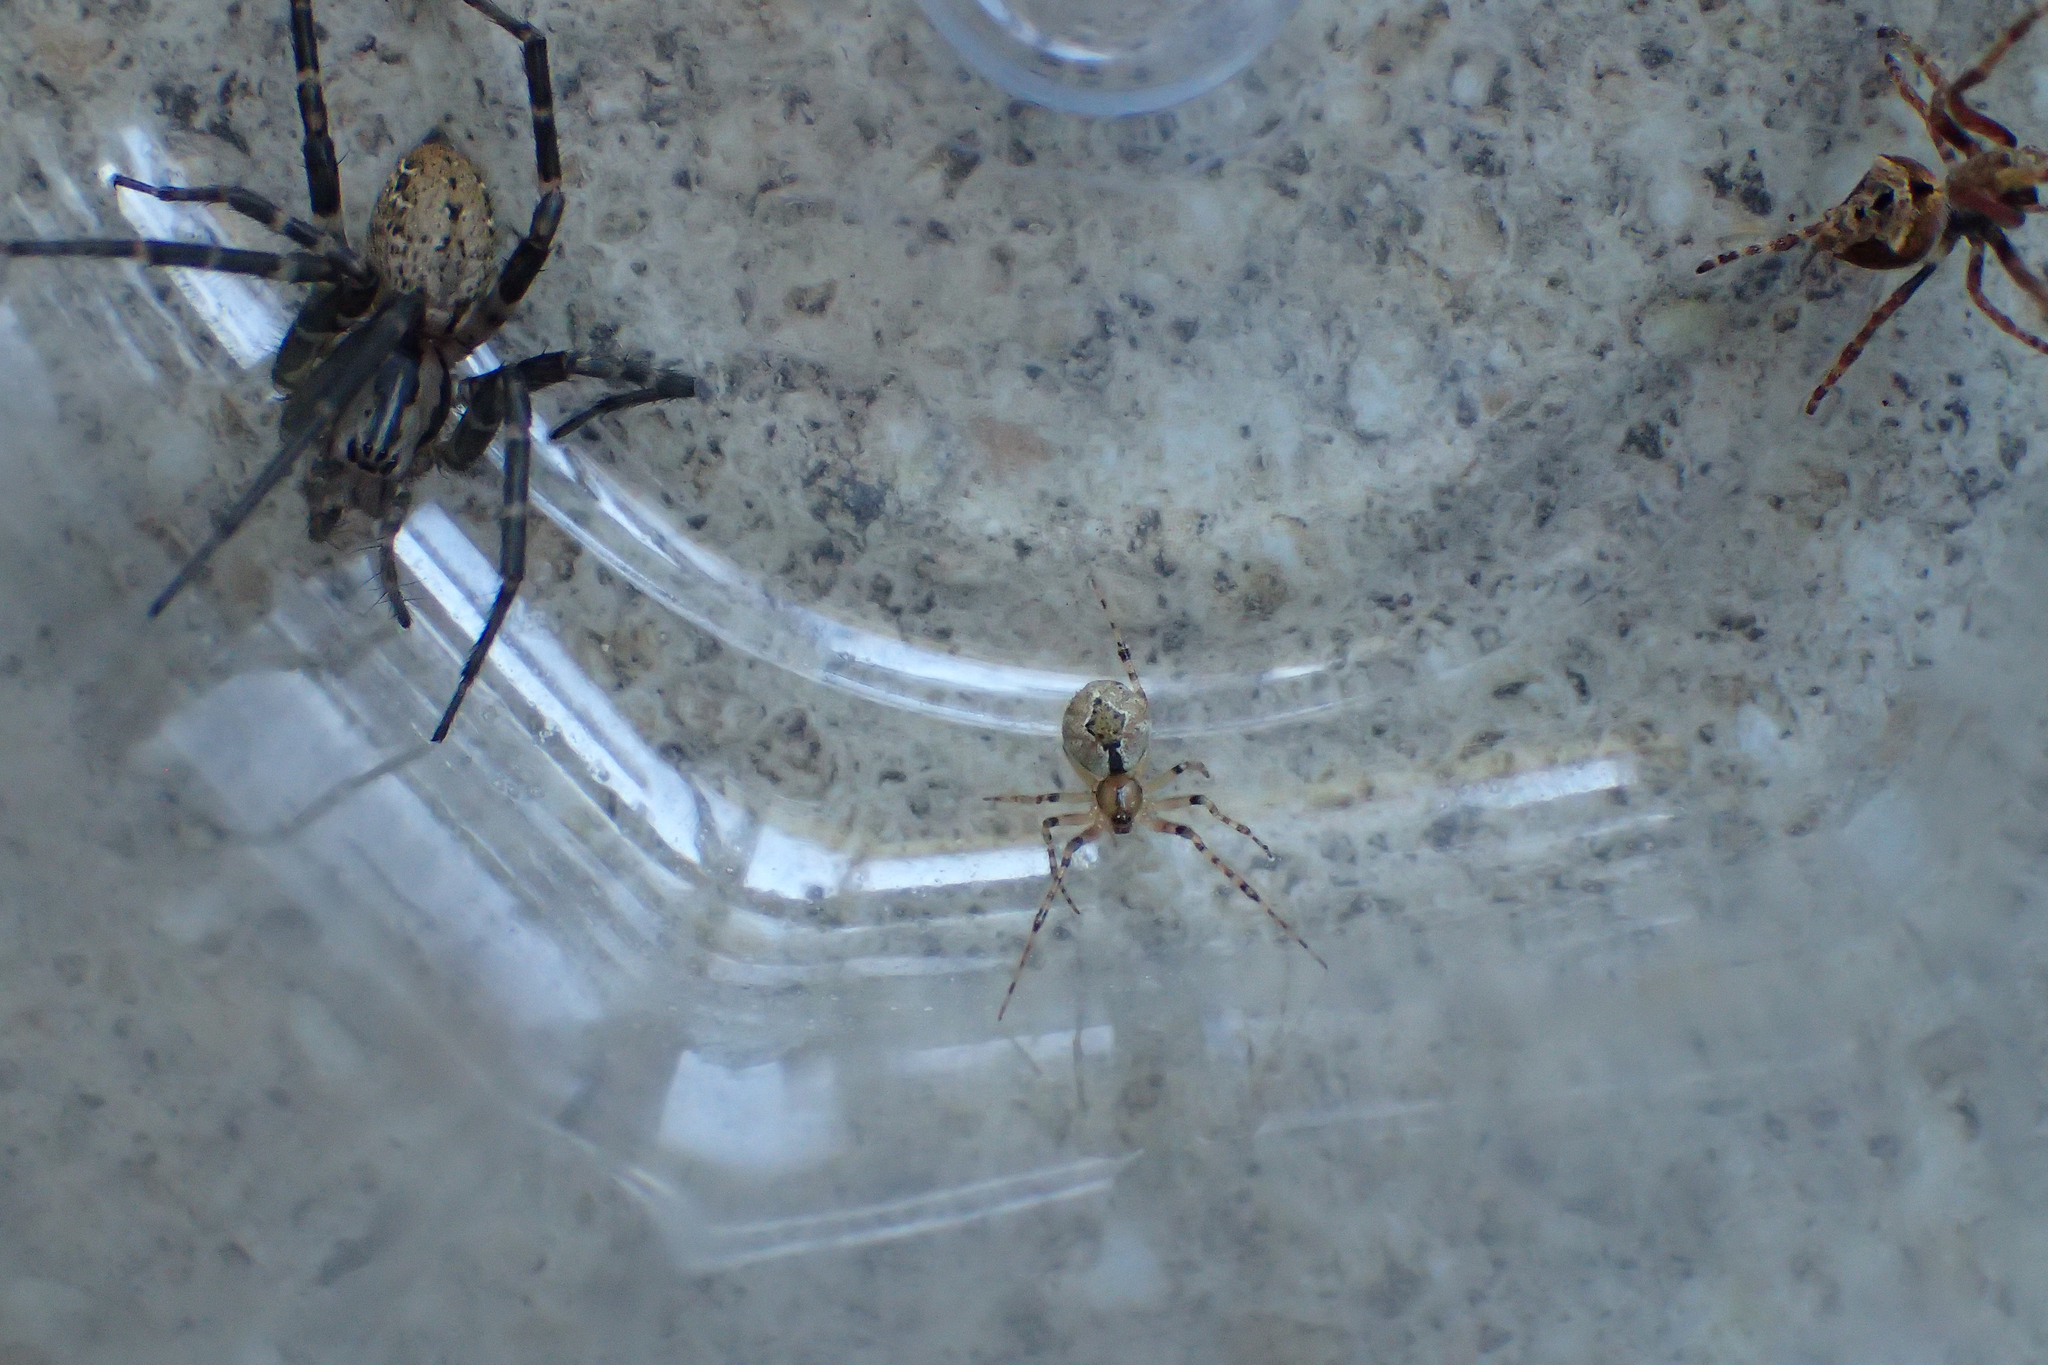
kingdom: Animalia
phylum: Arthropoda
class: Arachnida
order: Araneae
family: Theridiidae
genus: Cryptachaea
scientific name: Cryptachaea veruculata
